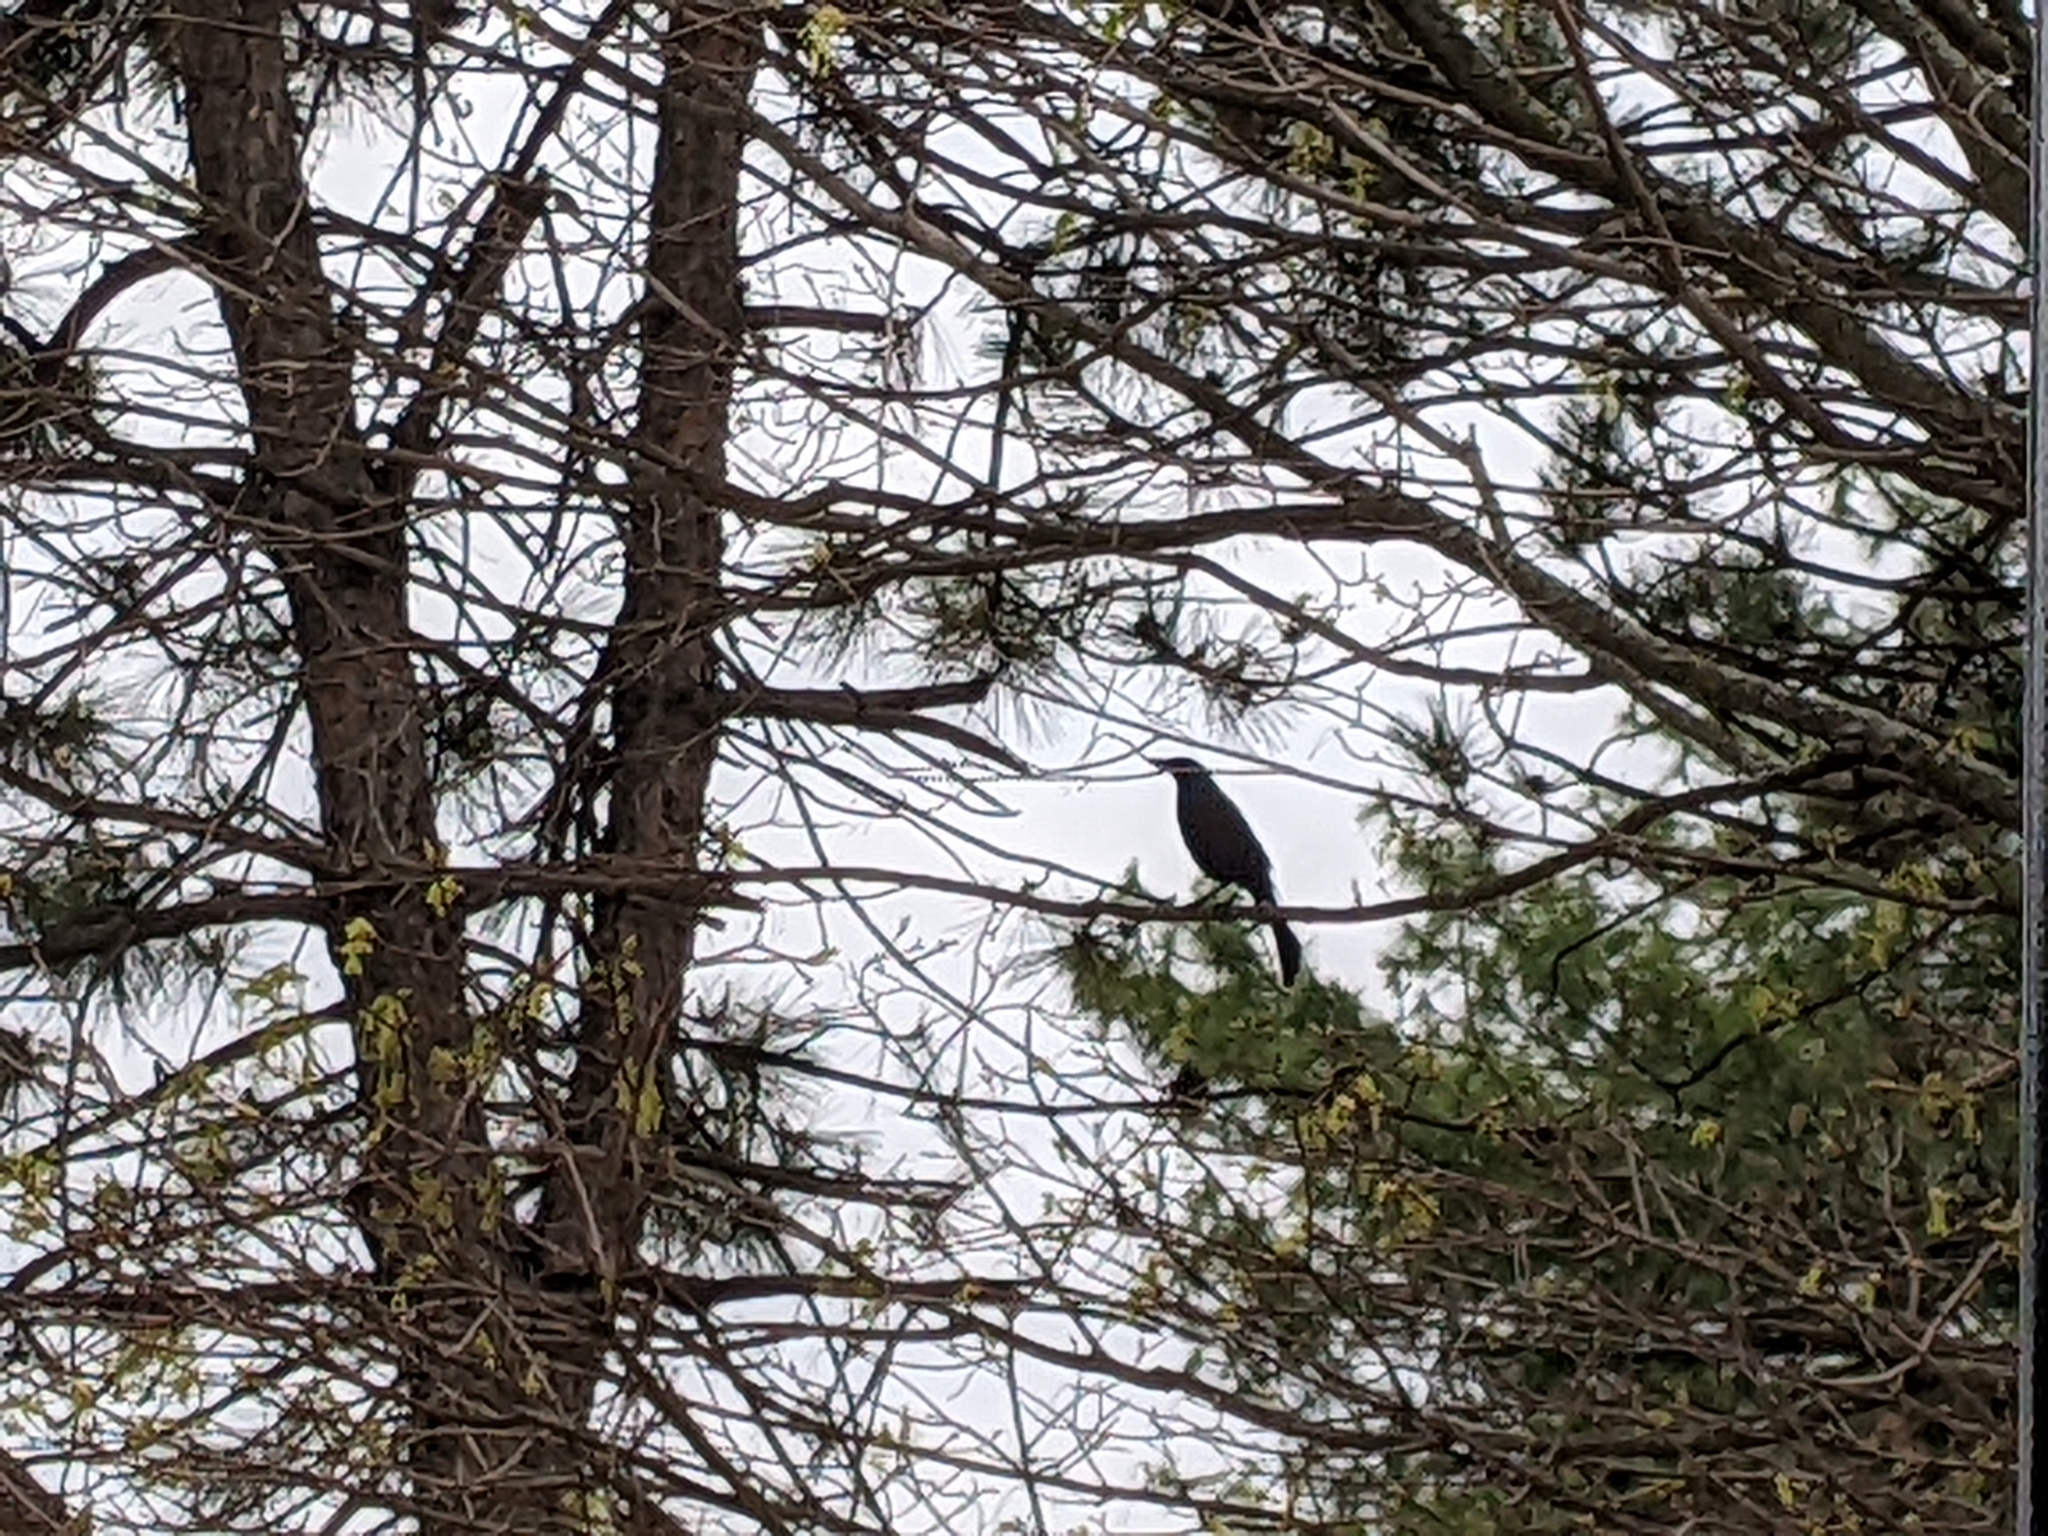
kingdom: Animalia
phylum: Chordata
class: Aves
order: Passeriformes
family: Icteridae
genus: Quiscalus
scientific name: Quiscalus quiscula
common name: Common grackle
